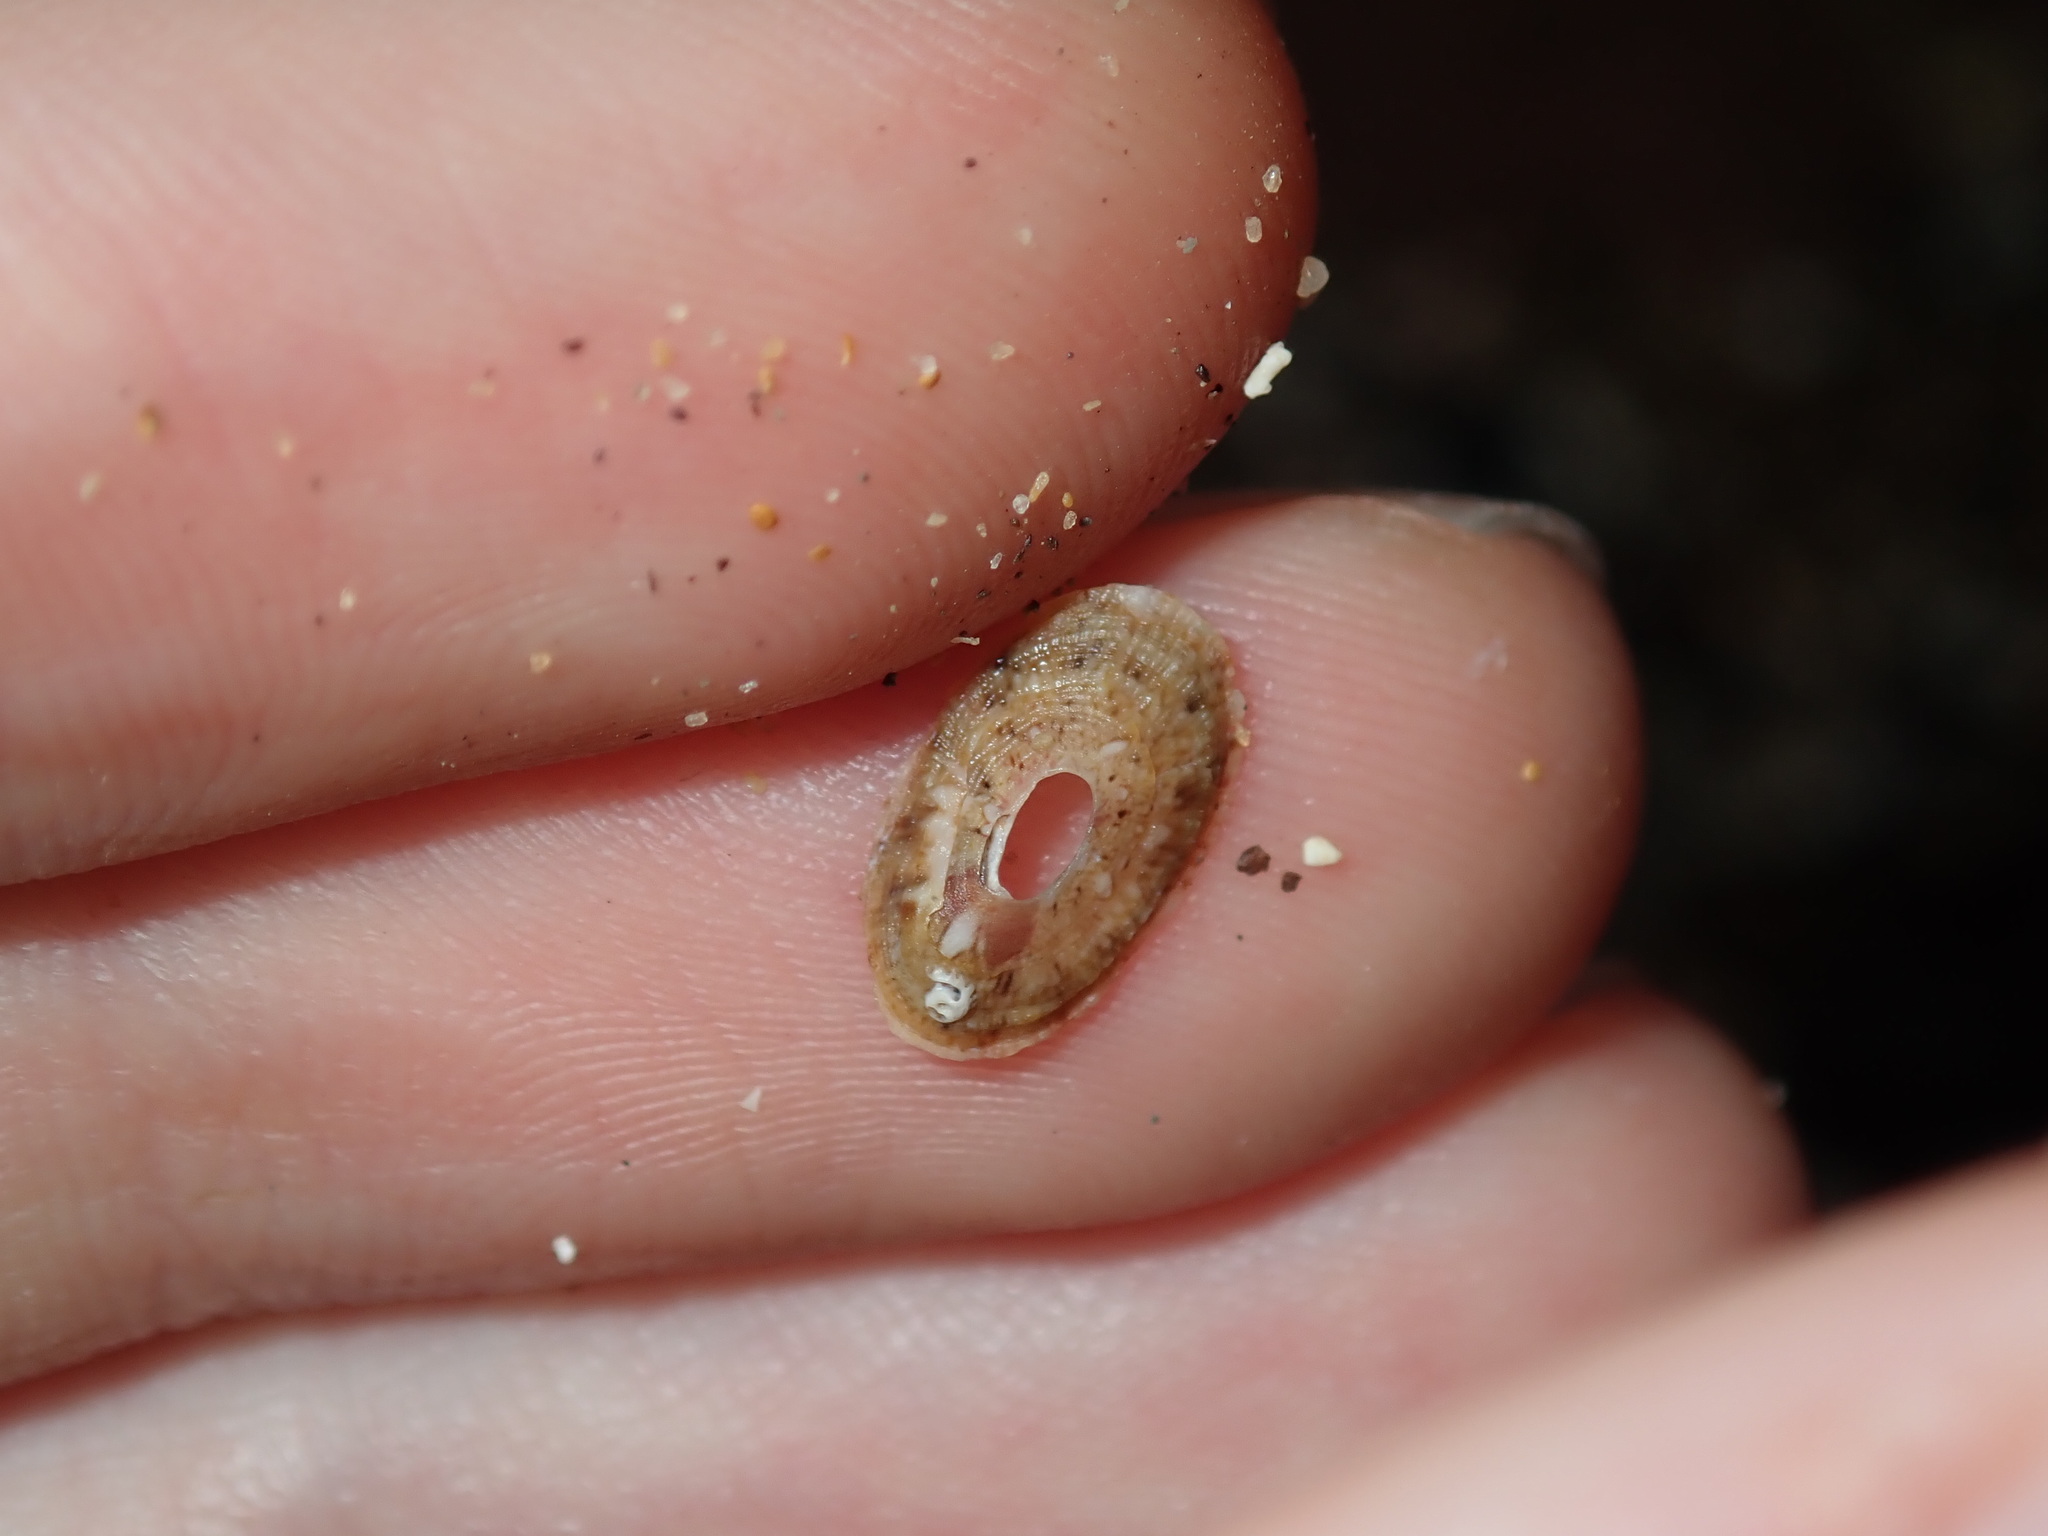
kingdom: Animalia
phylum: Mollusca
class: Gastropoda
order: Lepetellida
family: Fissurellidae
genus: Amblychilepas
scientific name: Amblychilepas nigrita
